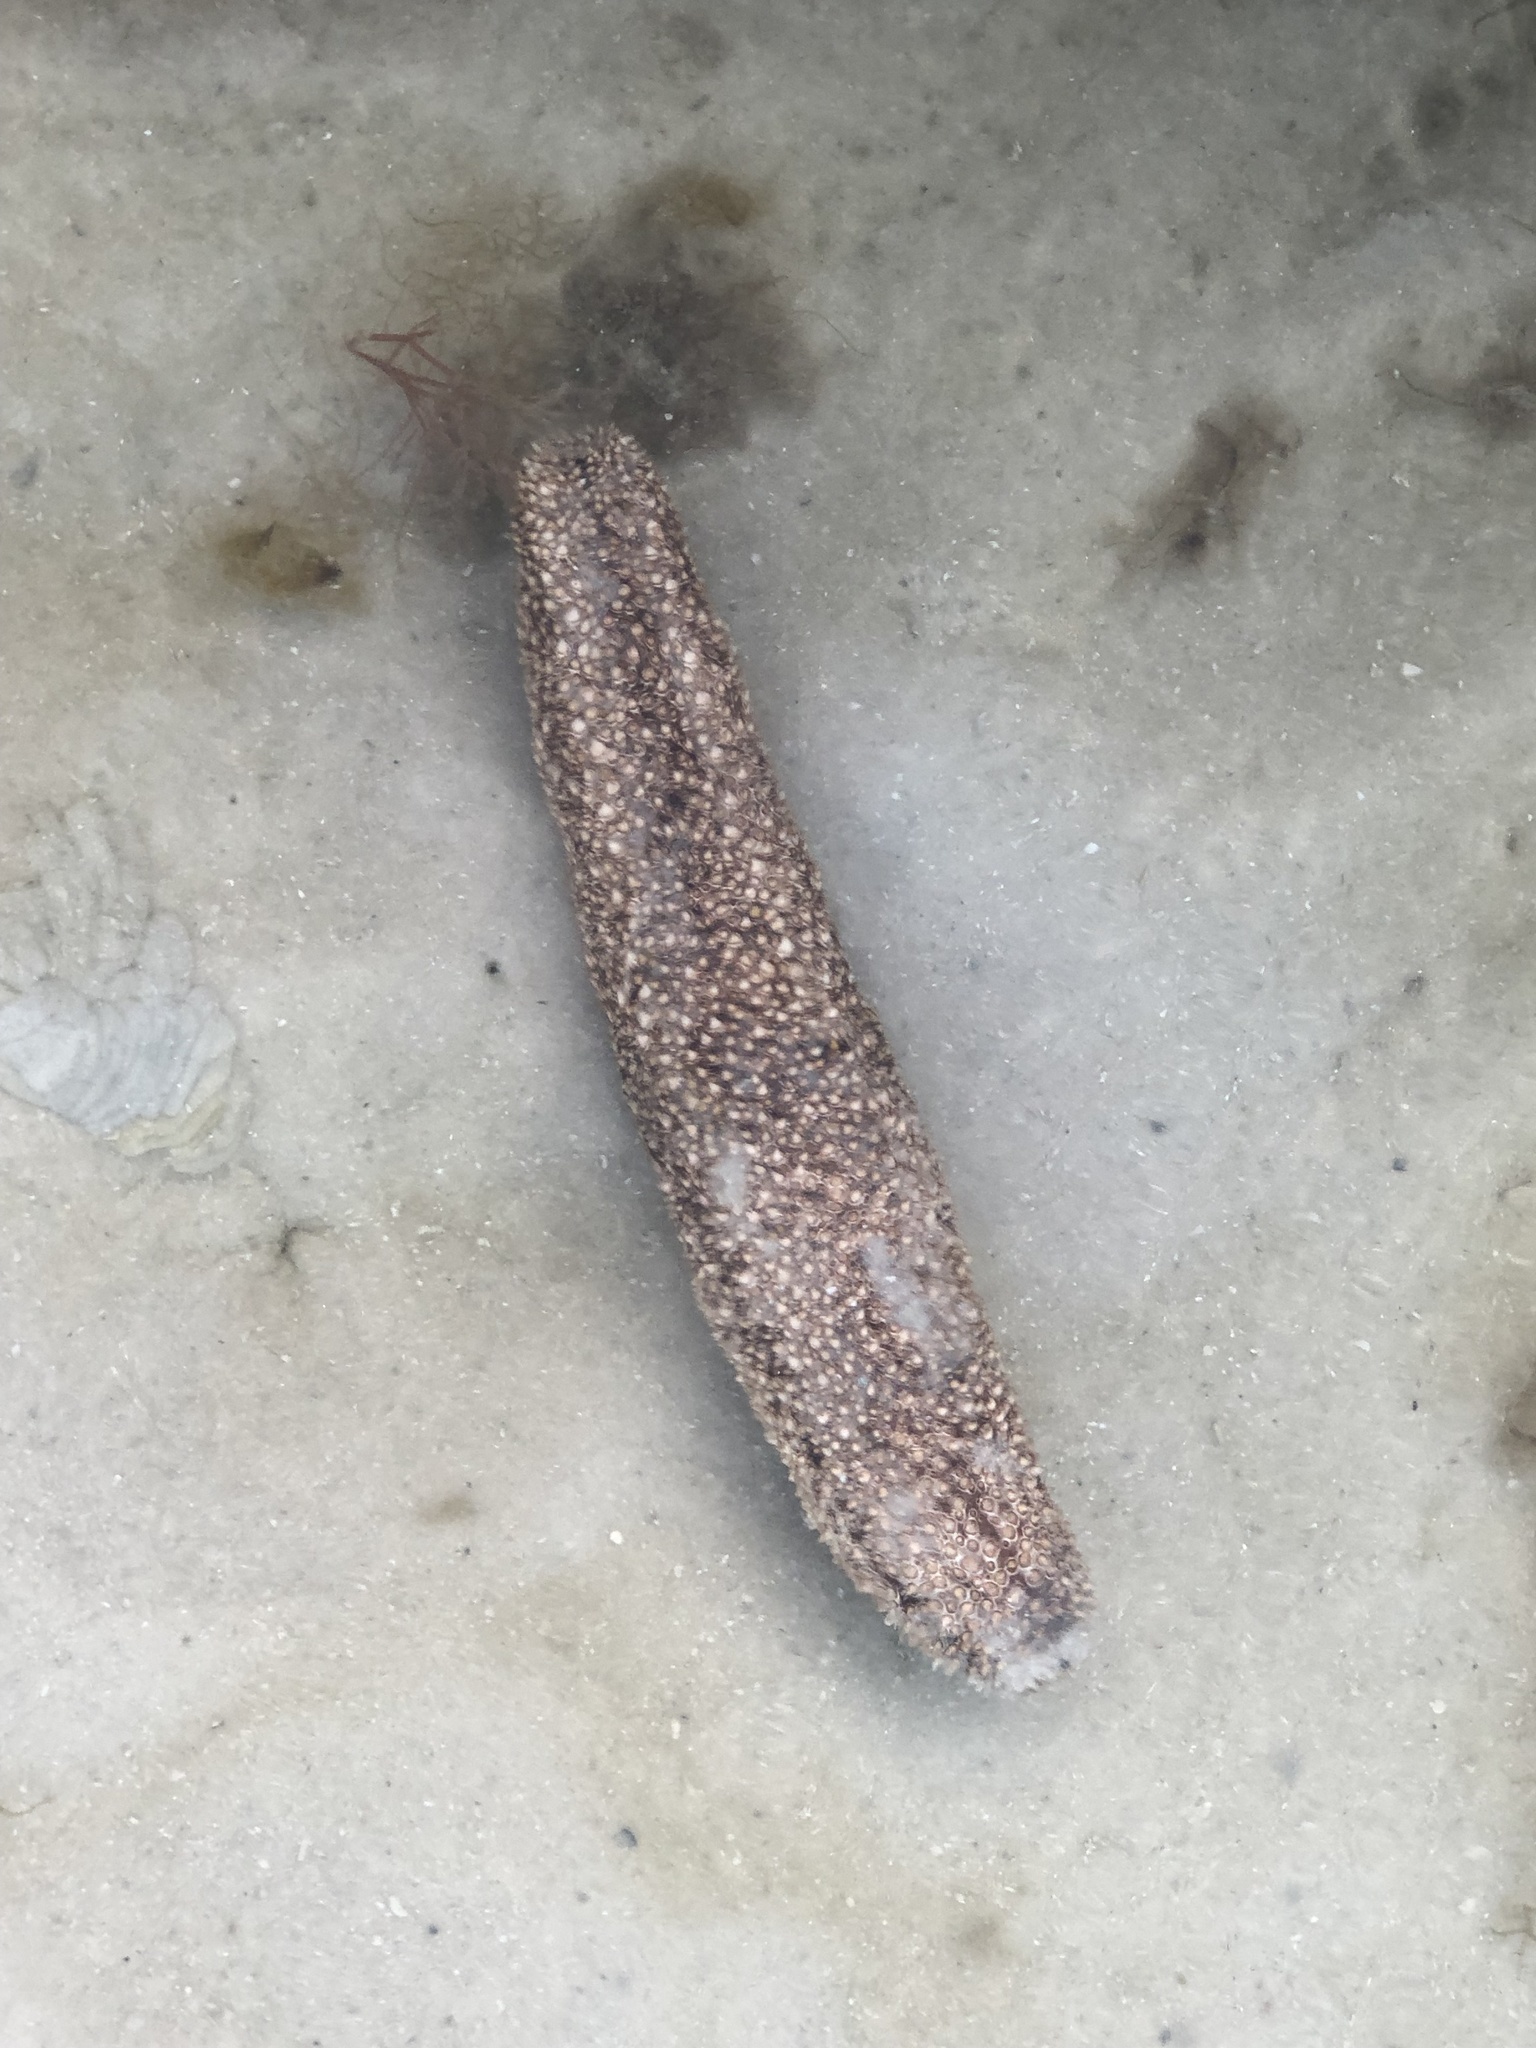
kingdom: Animalia
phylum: Echinodermata
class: Holothuroidea
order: Holothuriida
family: Holothuriidae
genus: Holothuria
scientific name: Holothuria princeps
